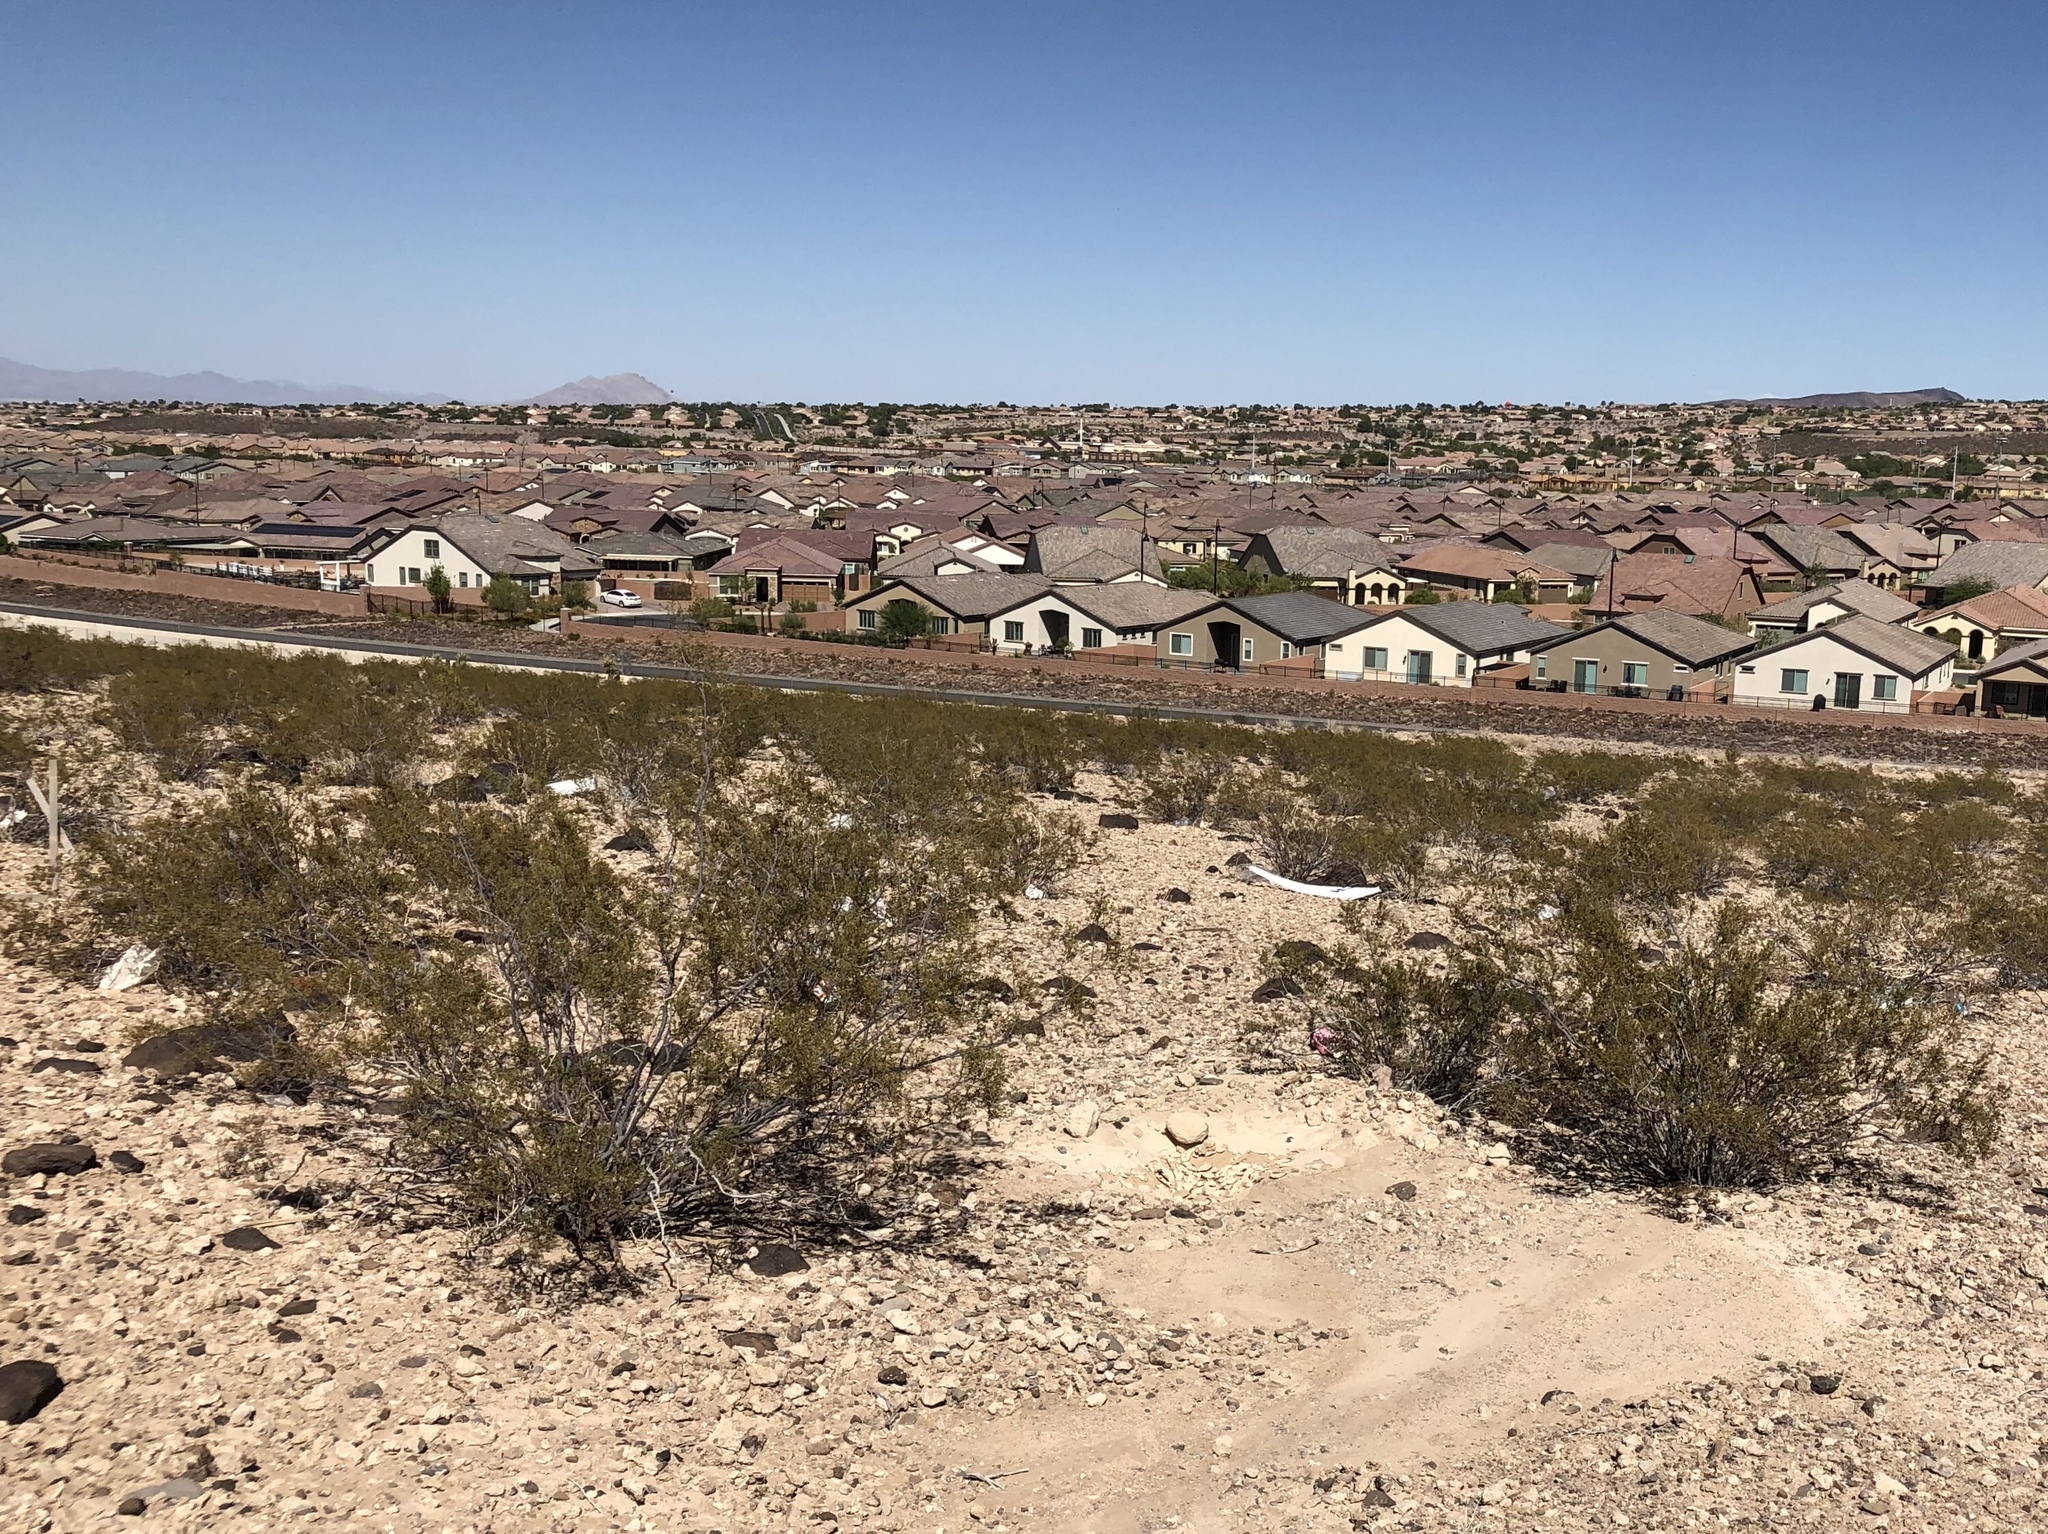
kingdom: Plantae
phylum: Tracheophyta
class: Magnoliopsida
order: Zygophyllales
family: Zygophyllaceae
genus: Larrea
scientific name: Larrea tridentata
